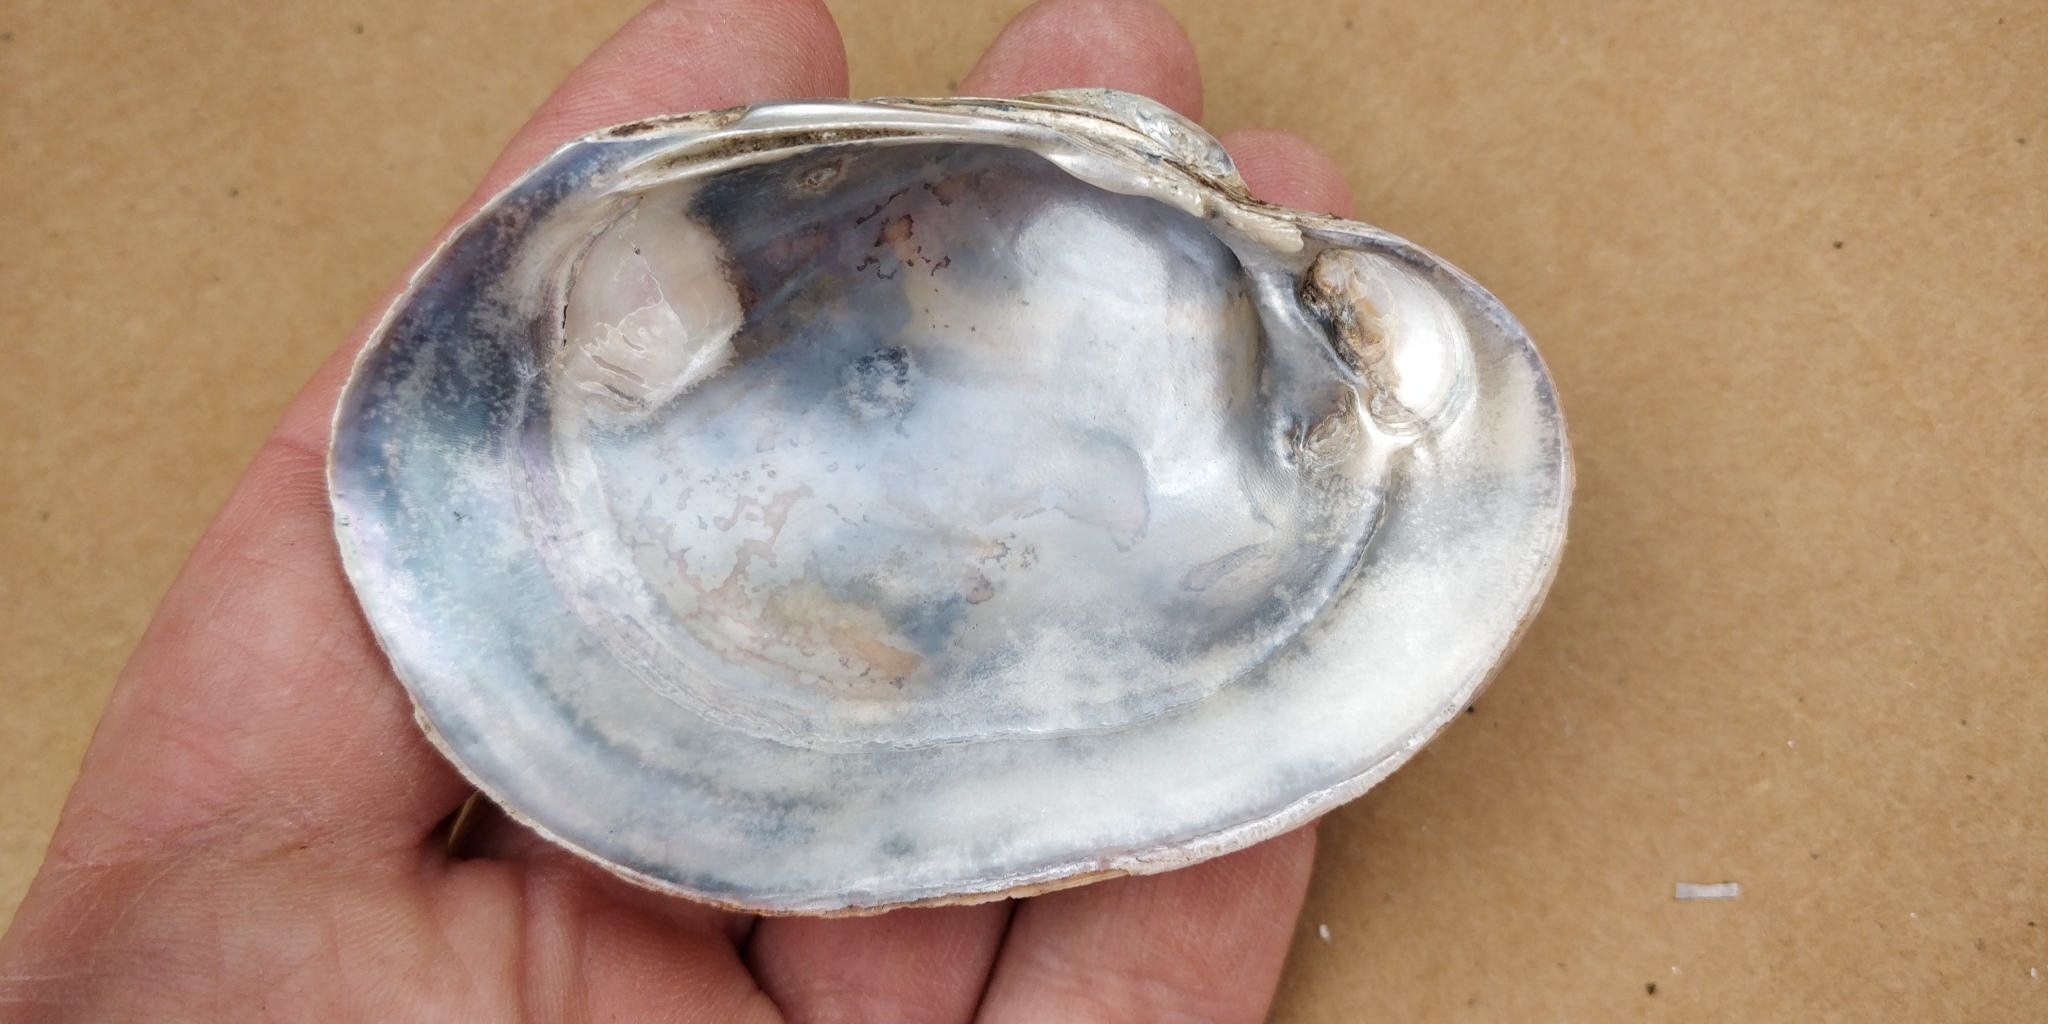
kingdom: Animalia
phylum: Mollusca
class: Bivalvia
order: Unionida
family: Unionidae
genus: Lampsilis
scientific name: Lampsilis cardium
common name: Plain pocketbook
